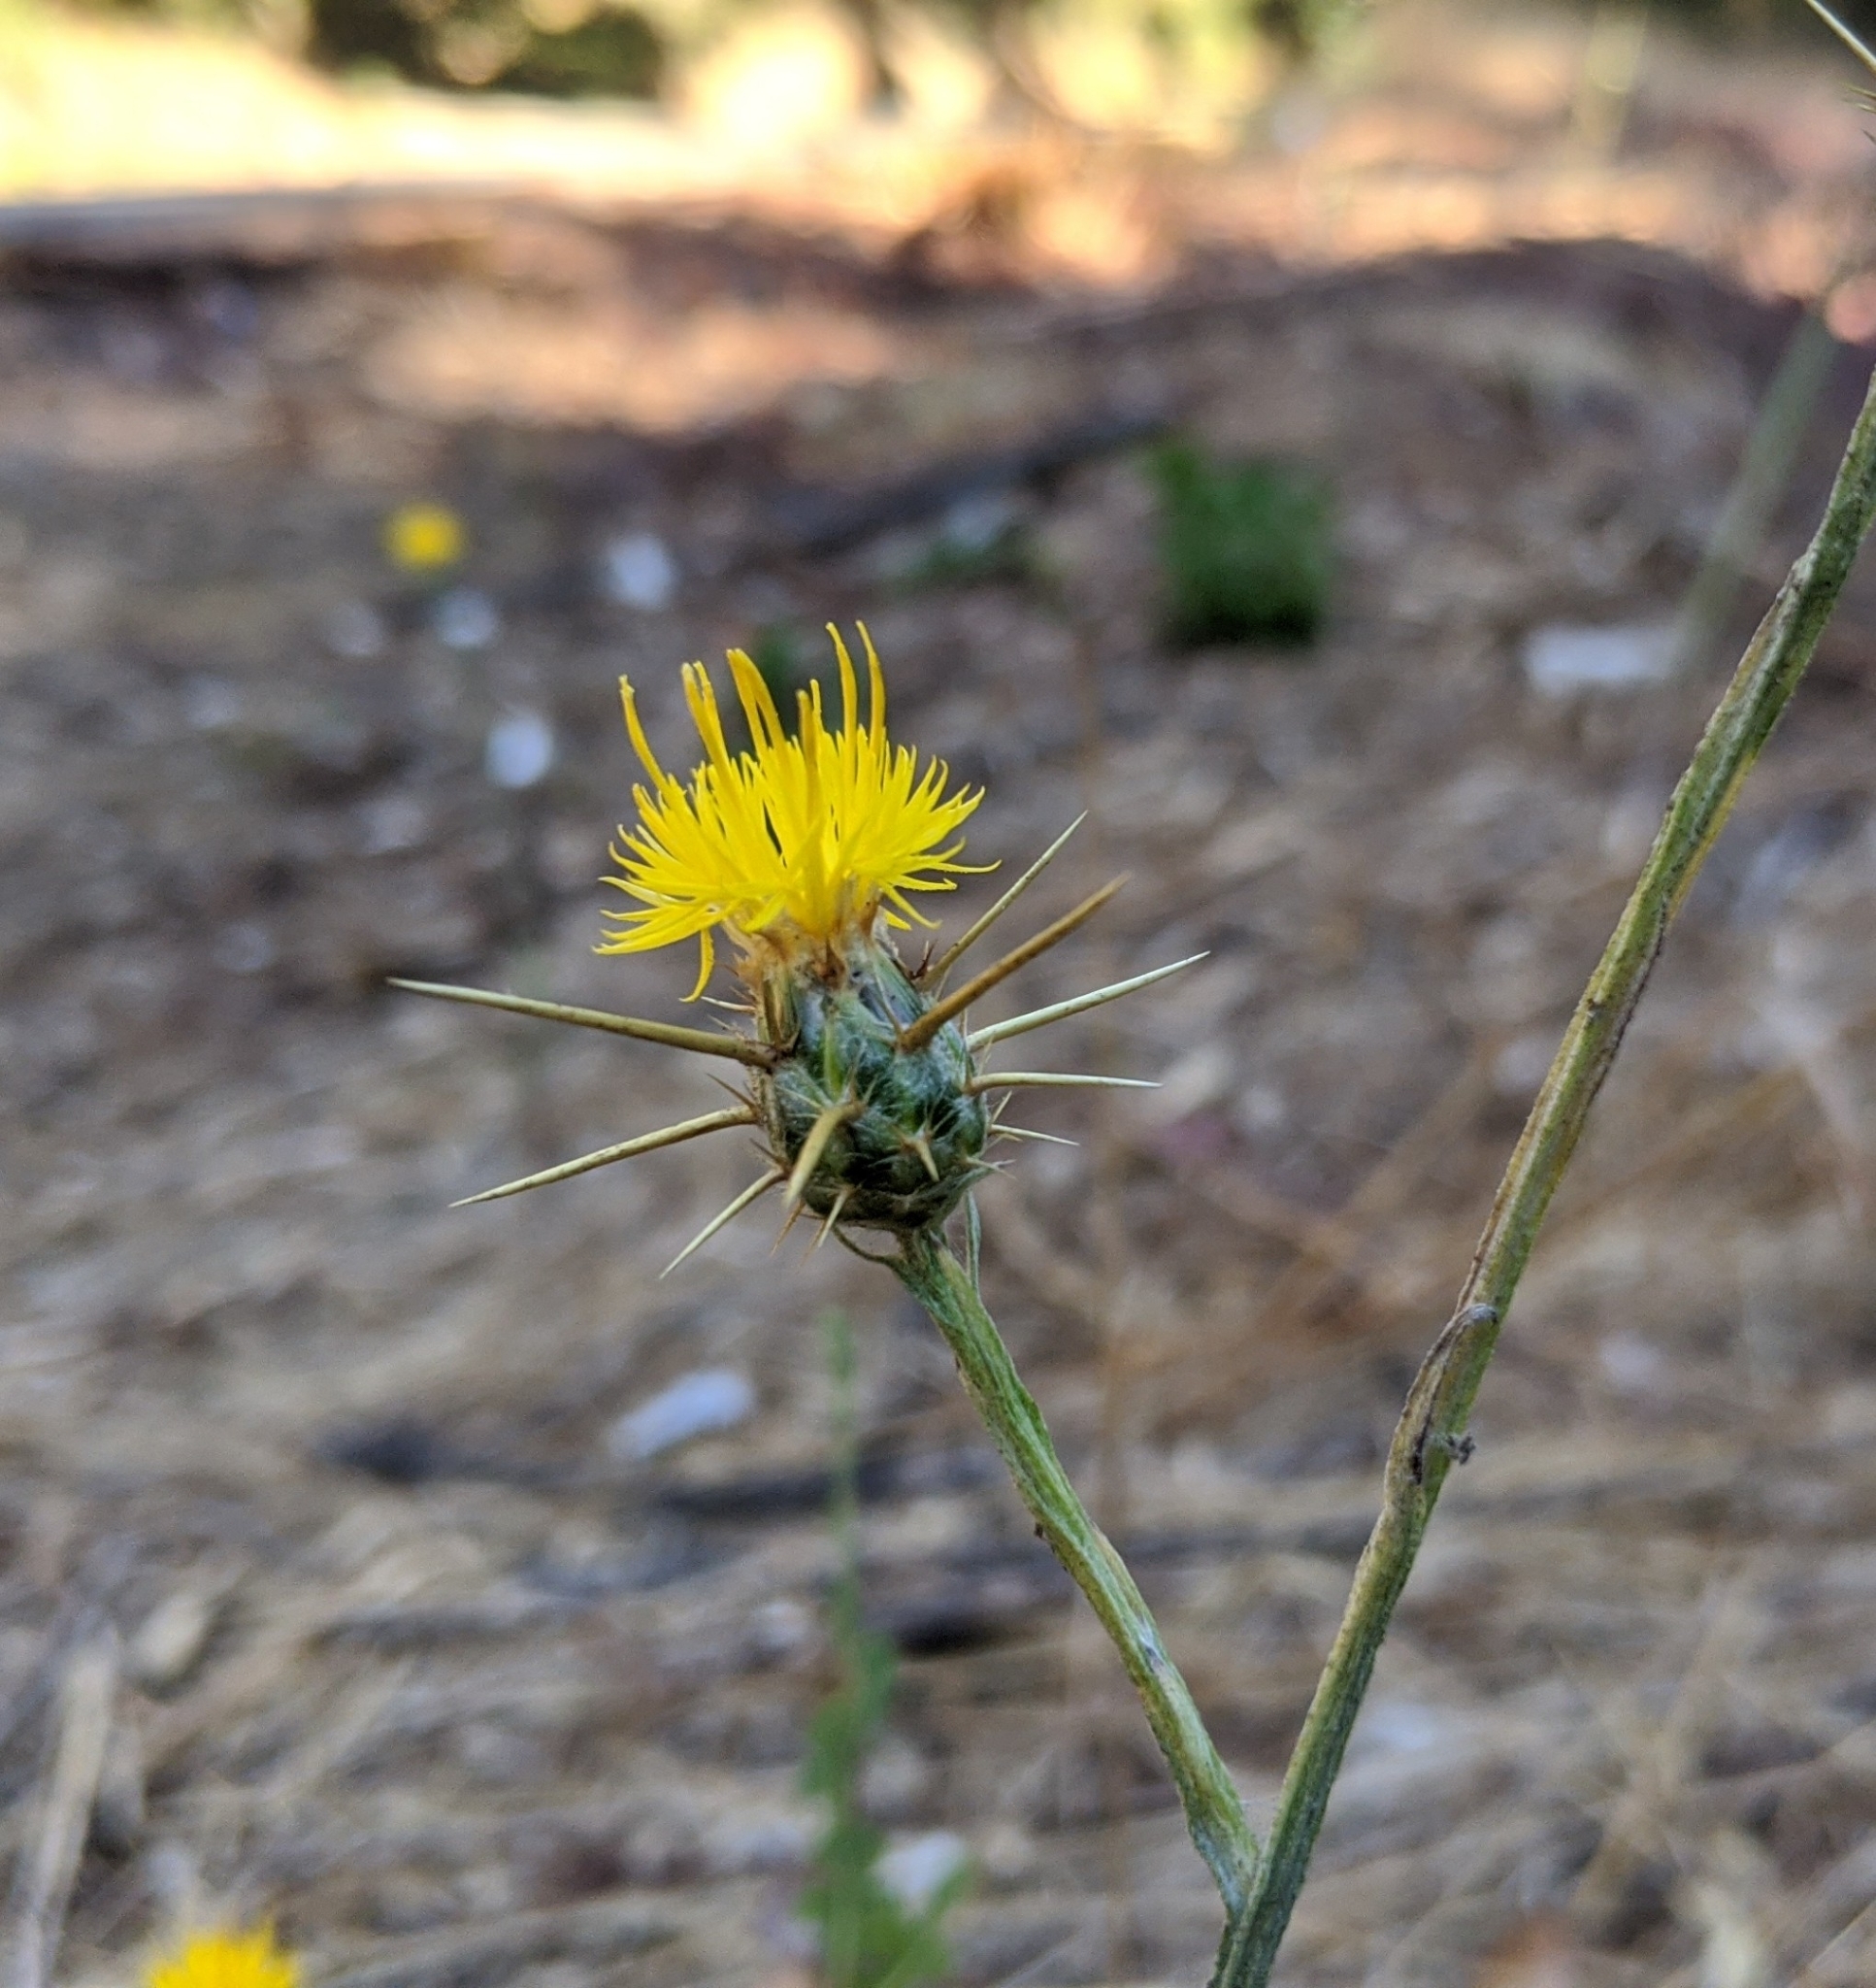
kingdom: Plantae
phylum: Tracheophyta
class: Magnoliopsida
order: Asterales
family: Asteraceae
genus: Centaurea
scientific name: Centaurea solstitialis
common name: Yellow star-thistle
